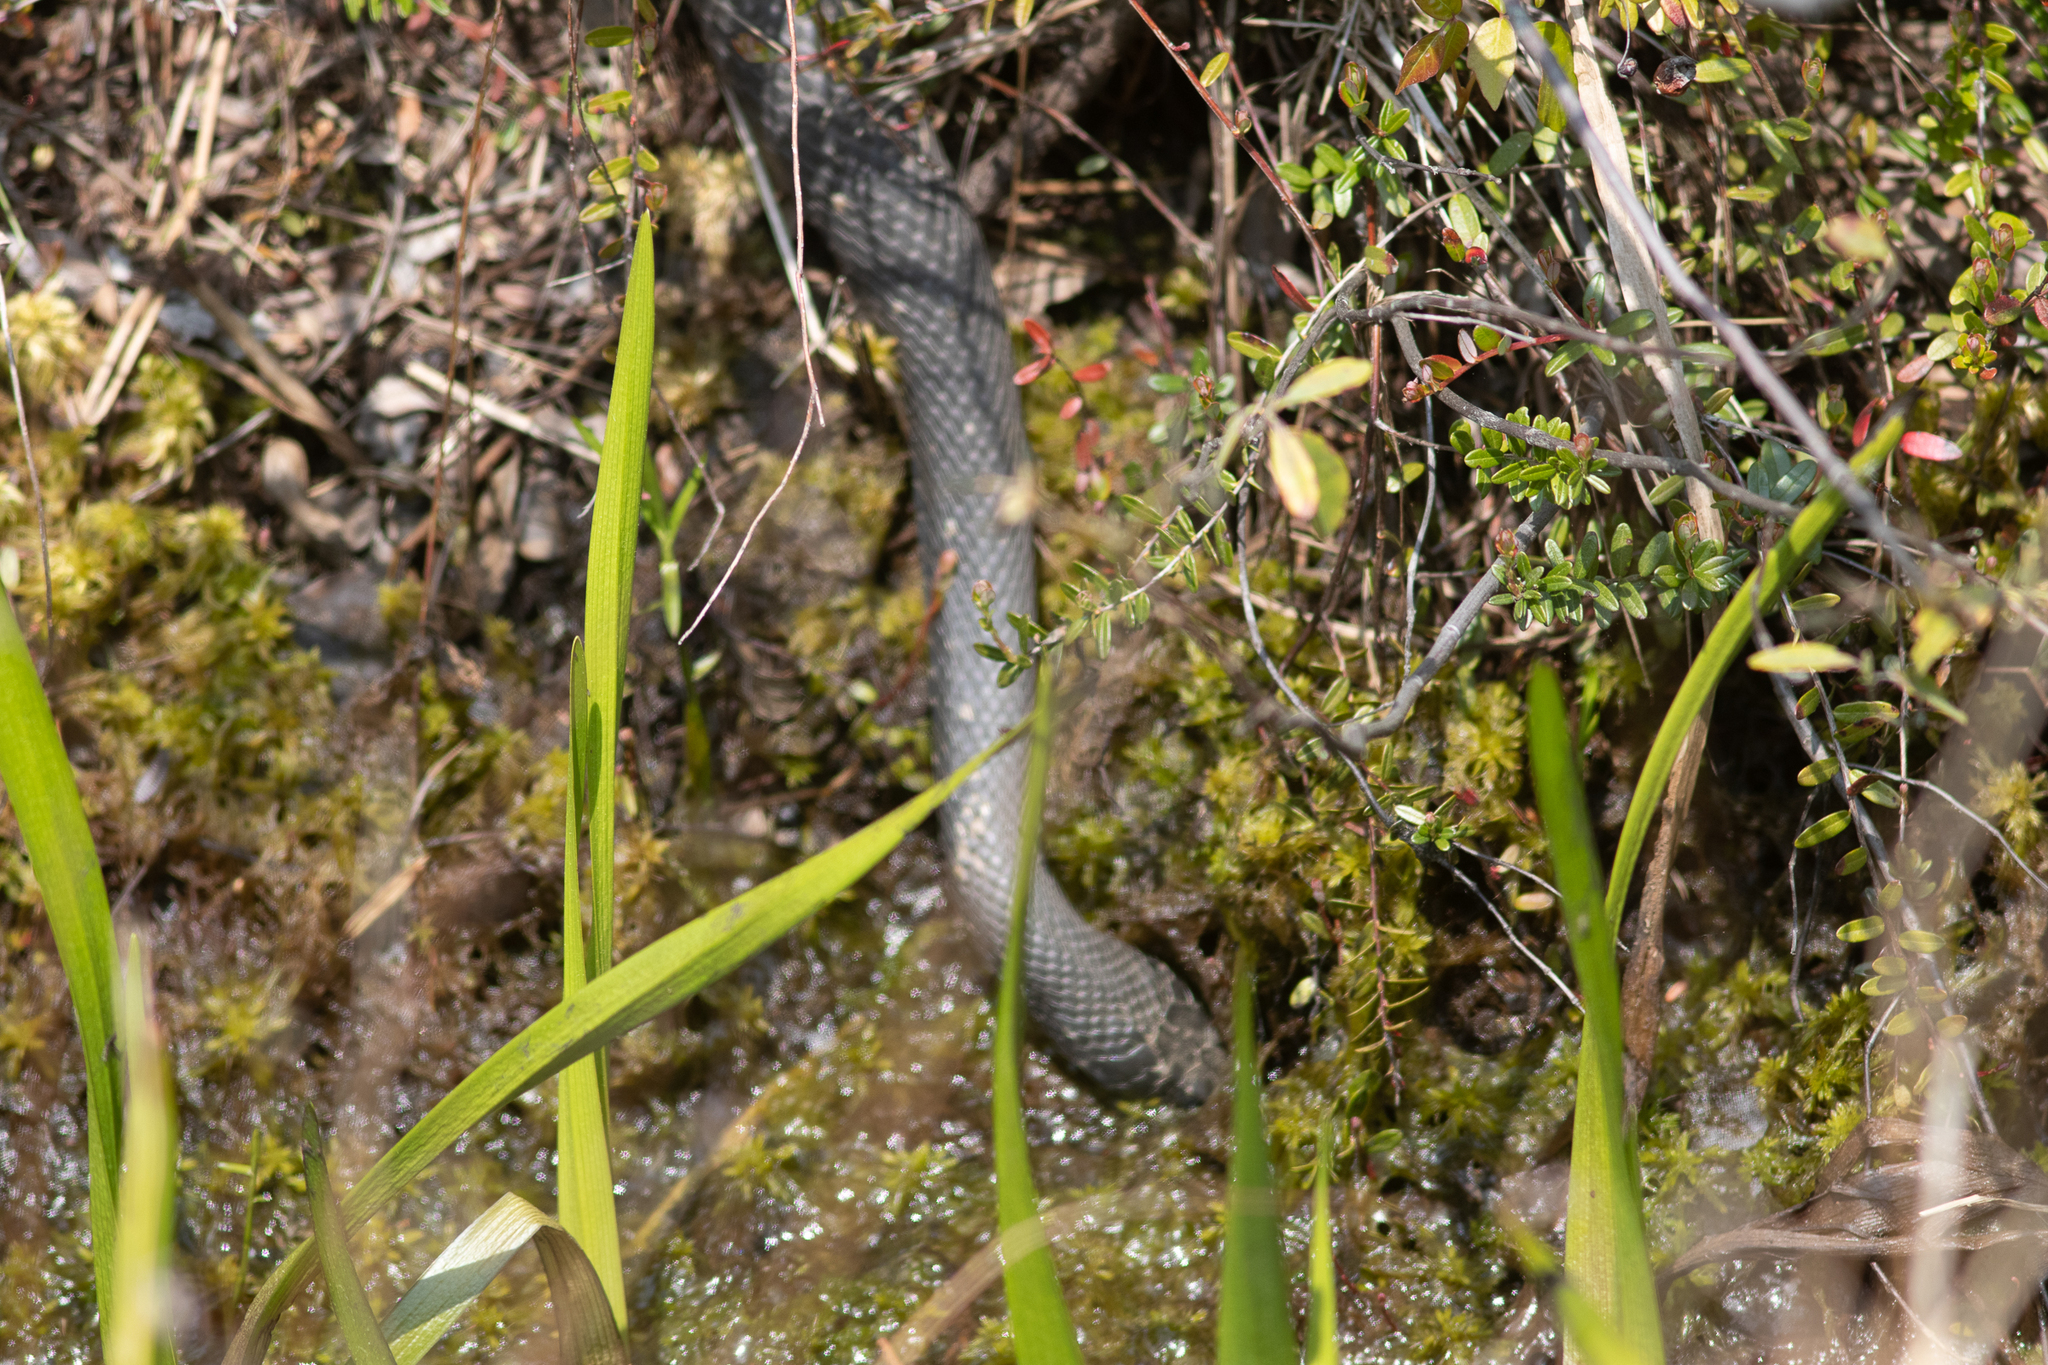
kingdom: Animalia
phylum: Chordata
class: Squamata
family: Colubridae
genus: Coluber
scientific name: Coluber constrictor
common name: Eastern racer
